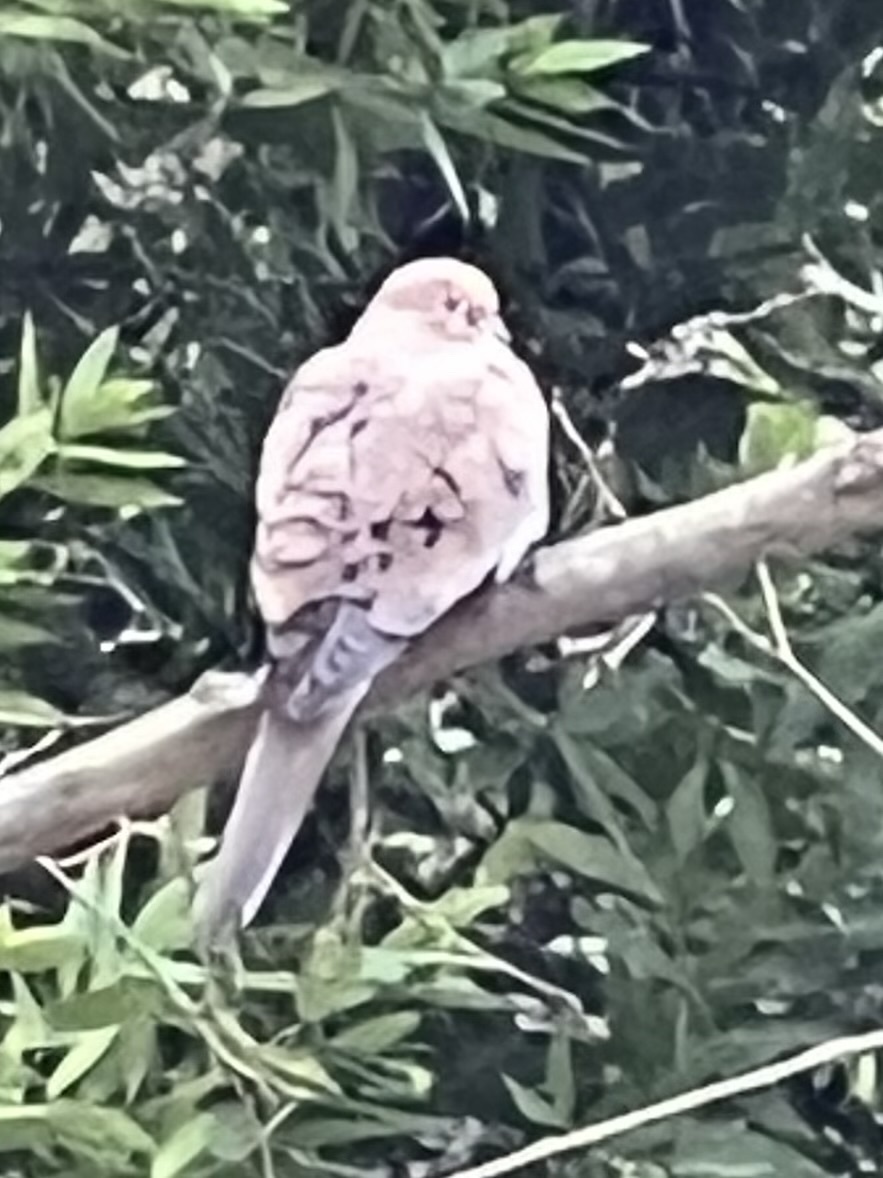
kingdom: Animalia
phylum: Chordata
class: Aves
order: Columbiformes
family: Columbidae
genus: Zenaida
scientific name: Zenaida macroura
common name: Mourning dove
